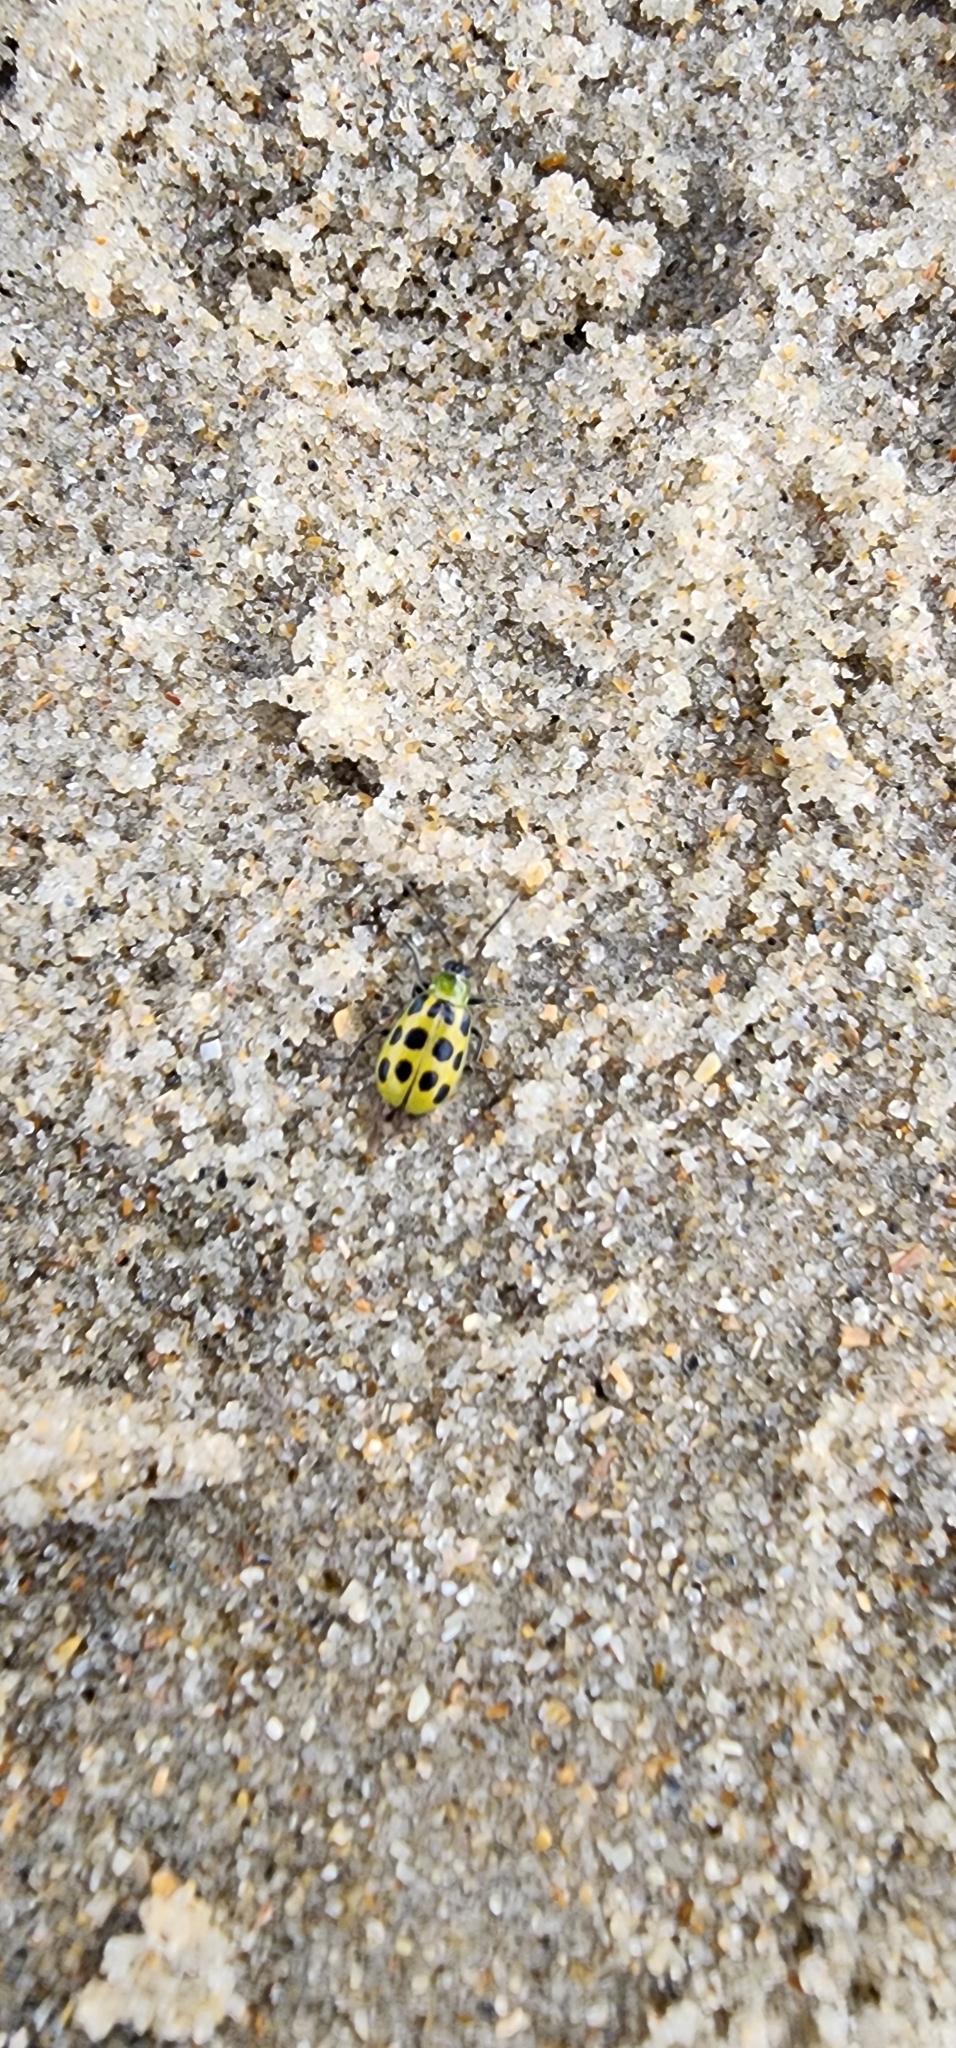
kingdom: Animalia
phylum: Arthropoda
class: Insecta
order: Coleoptera
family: Chrysomelidae
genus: Diabrotica
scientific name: Diabrotica undecimpunctata
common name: Spotted cucumber beetle
